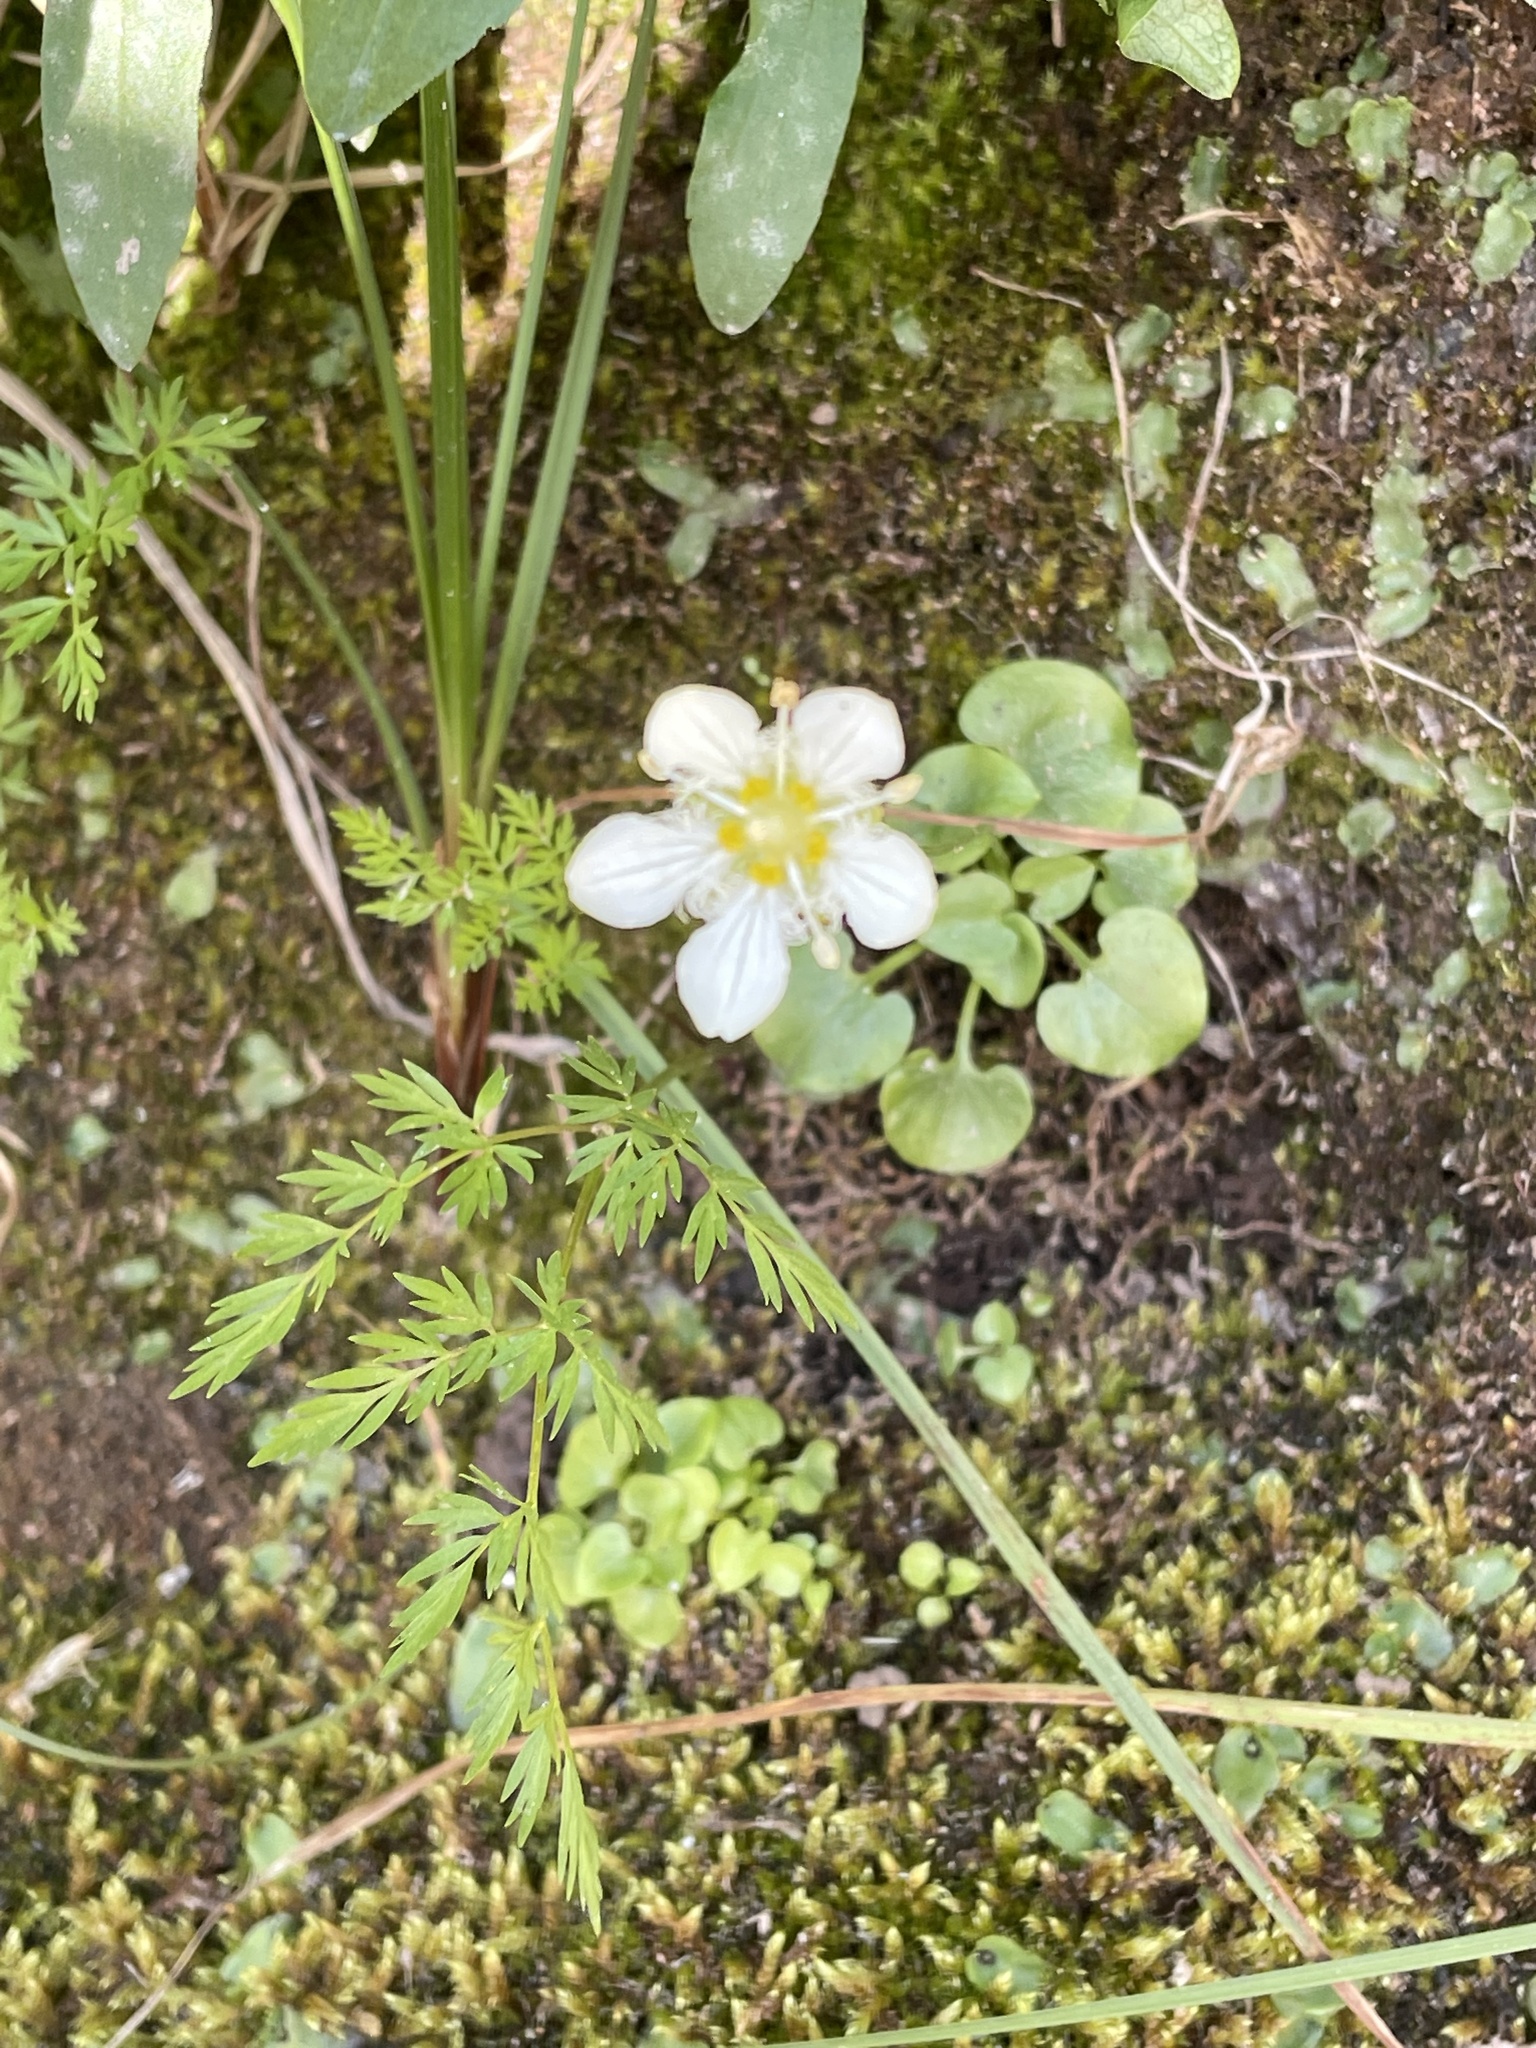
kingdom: Plantae
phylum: Tracheophyta
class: Magnoliopsida
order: Celastrales
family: Parnassiaceae
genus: Parnassia
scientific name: Parnassia fimbriata
